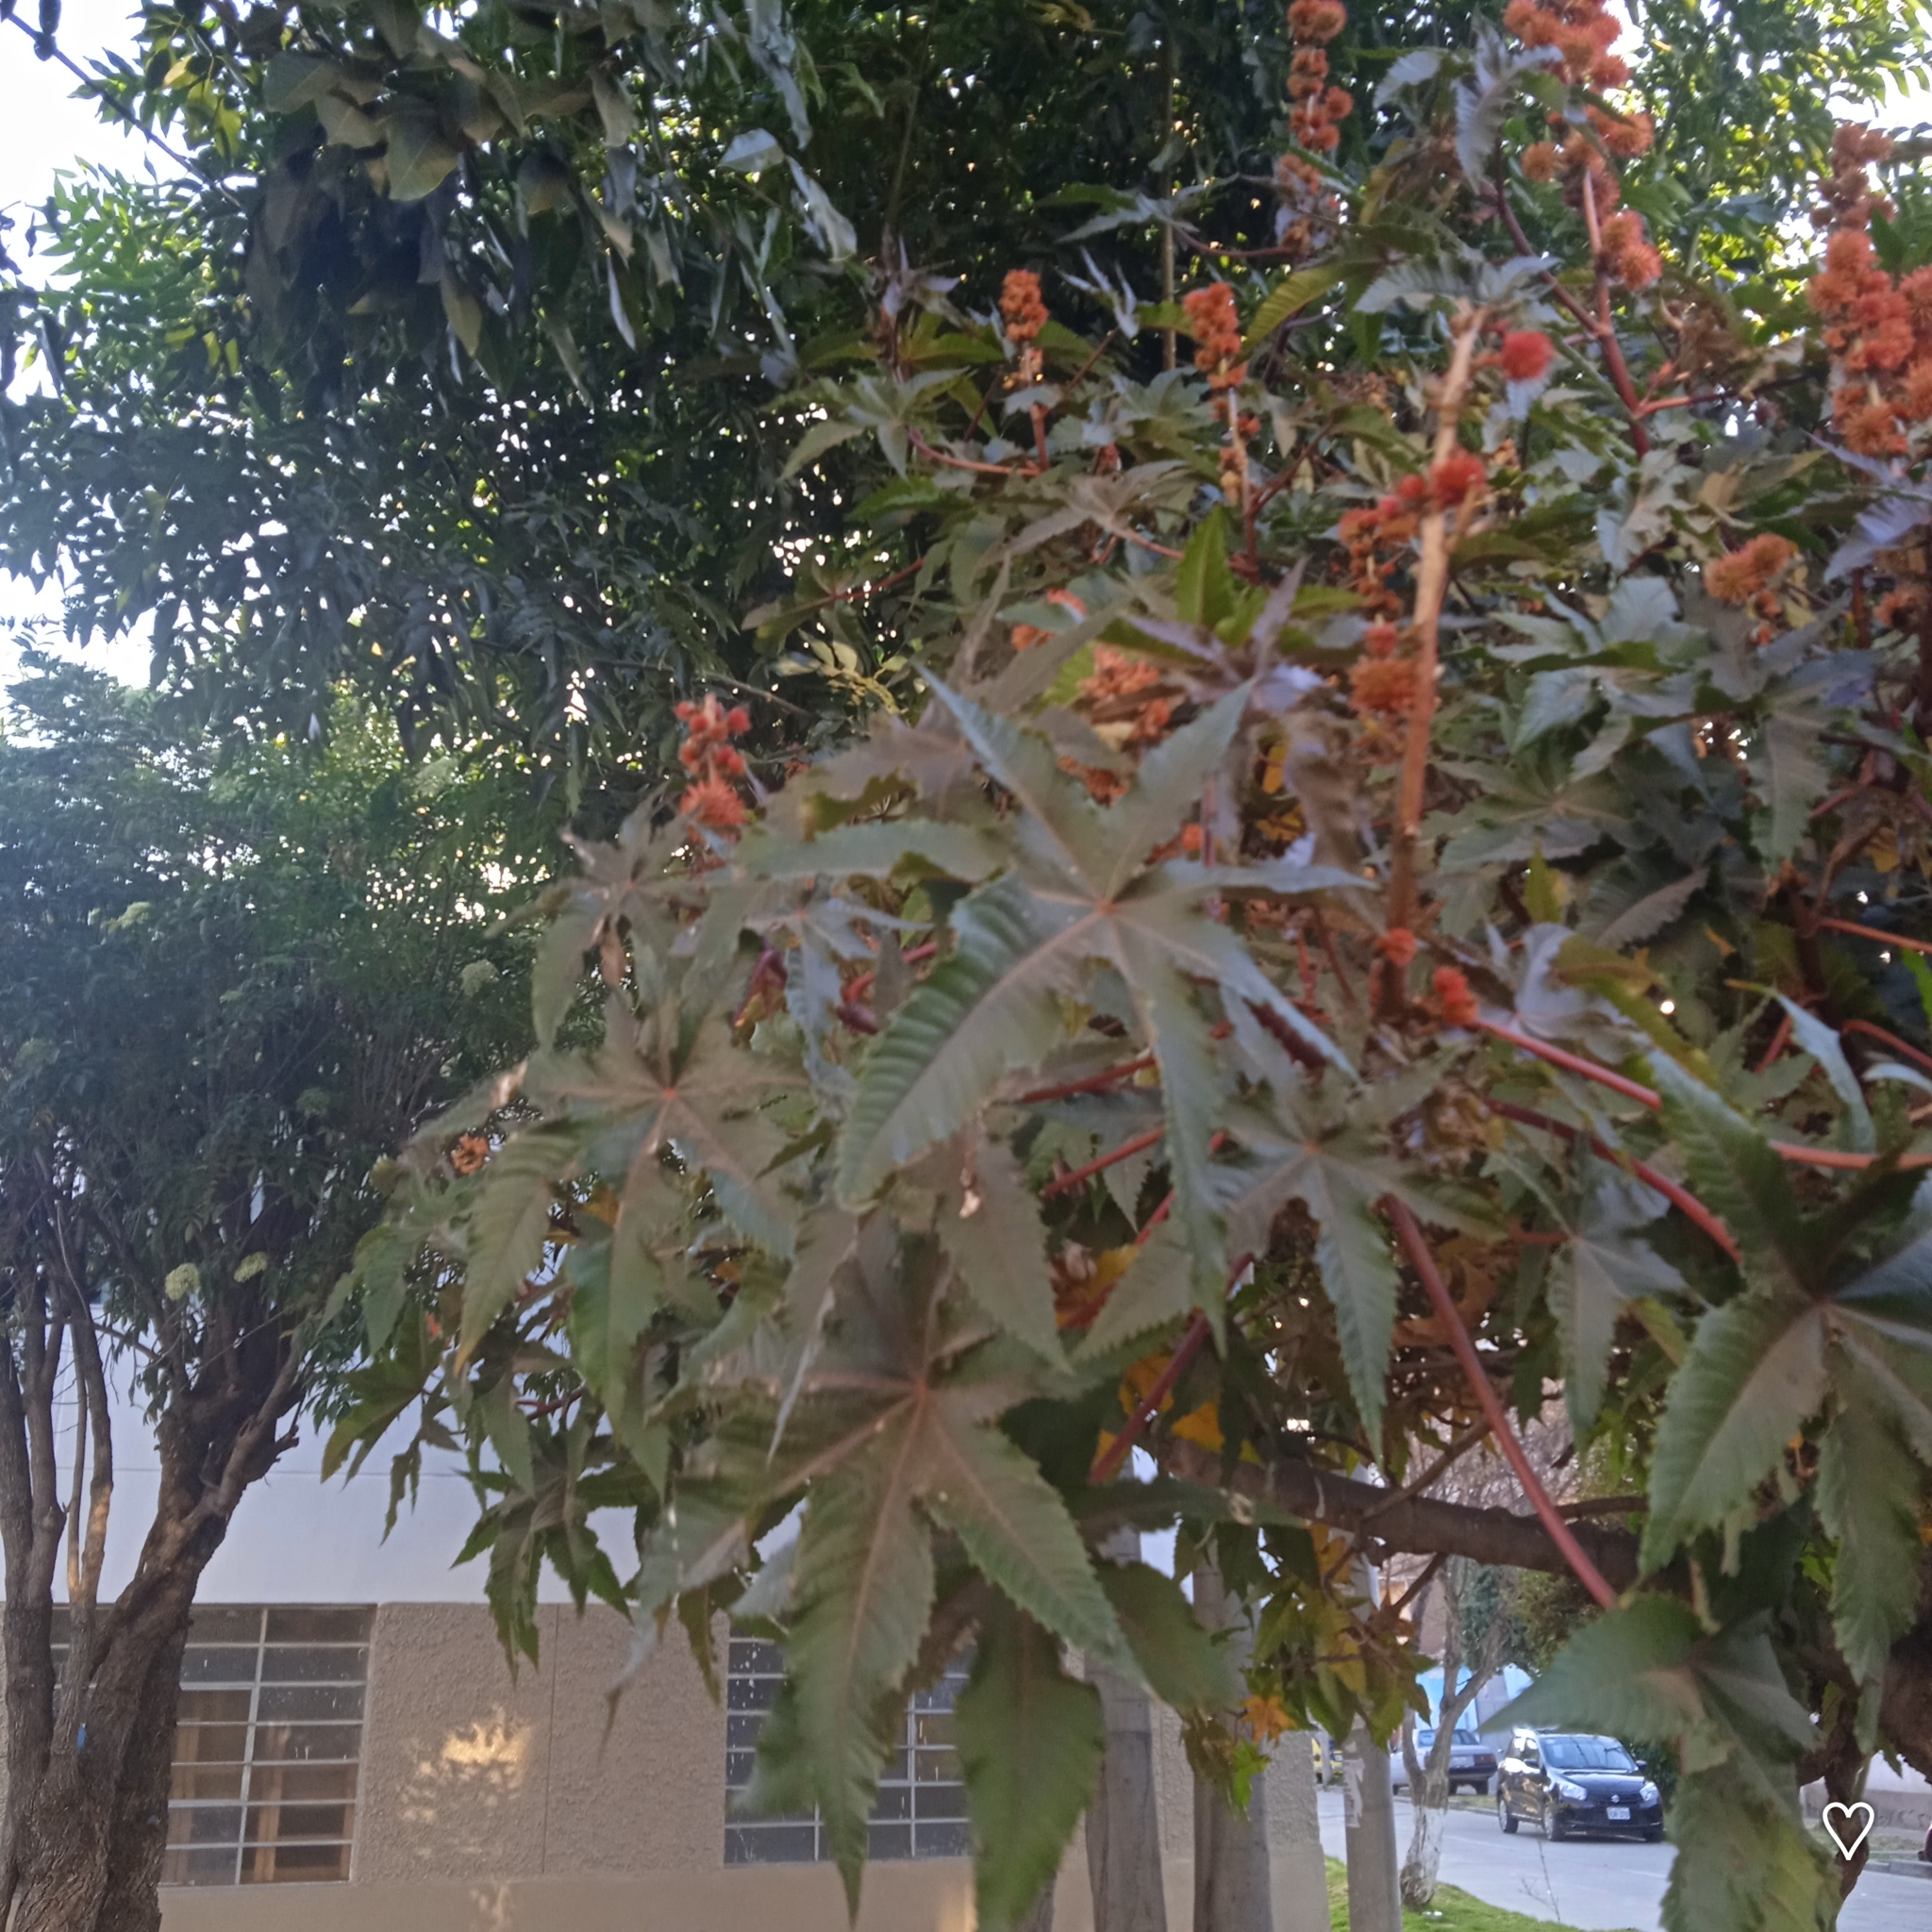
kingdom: Plantae
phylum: Tracheophyta
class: Magnoliopsida
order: Malpighiales
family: Euphorbiaceae
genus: Ricinus
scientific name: Ricinus communis
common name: Castor-oil-plant
